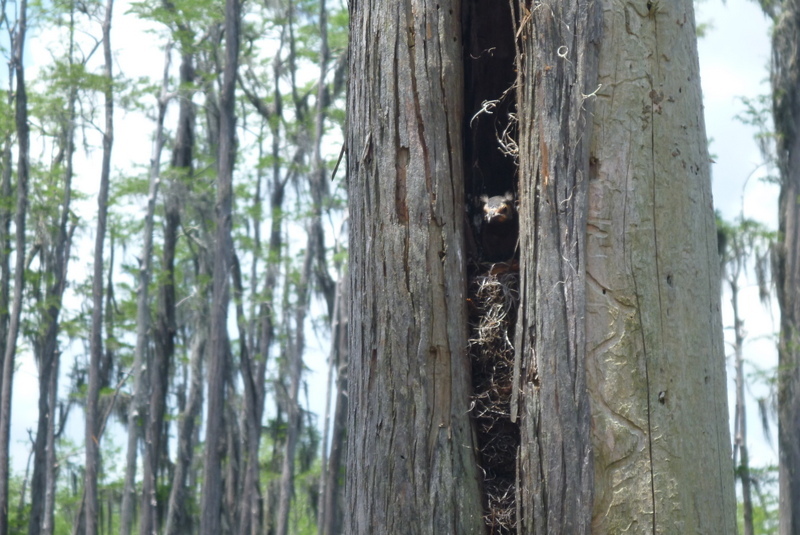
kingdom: Animalia
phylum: Chordata
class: Aves
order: Passeriformes
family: Icteridae
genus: Quiscalus
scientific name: Quiscalus quiscula
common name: Common grackle
